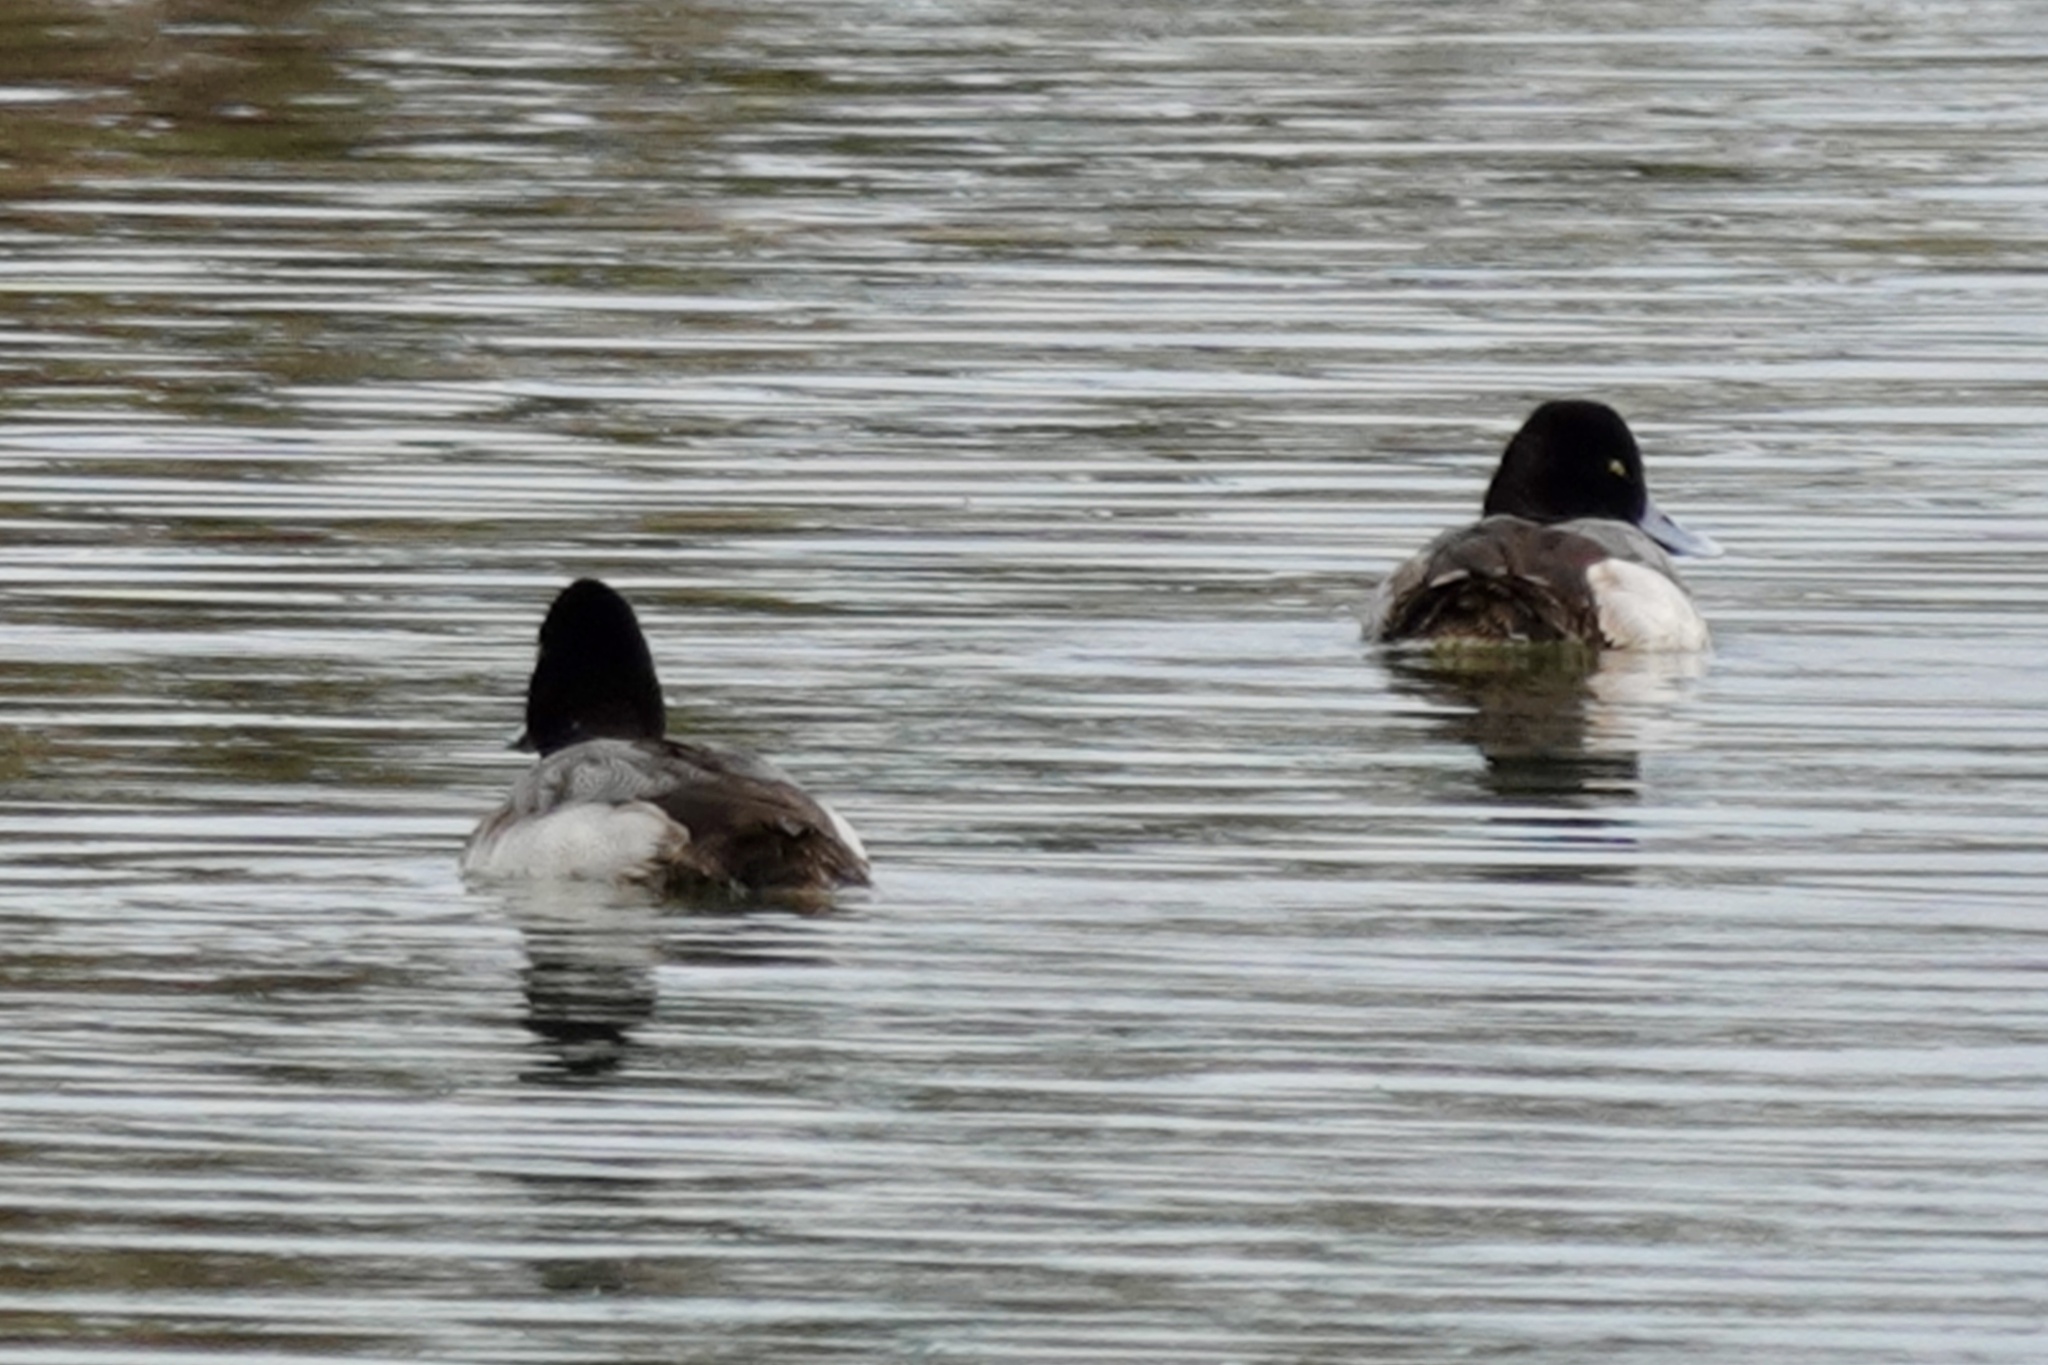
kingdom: Animalia
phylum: Chordata
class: Aves
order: Anseriformes
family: Anatidae
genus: Aythya
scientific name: Aythya affinis
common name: Lesser scaup
